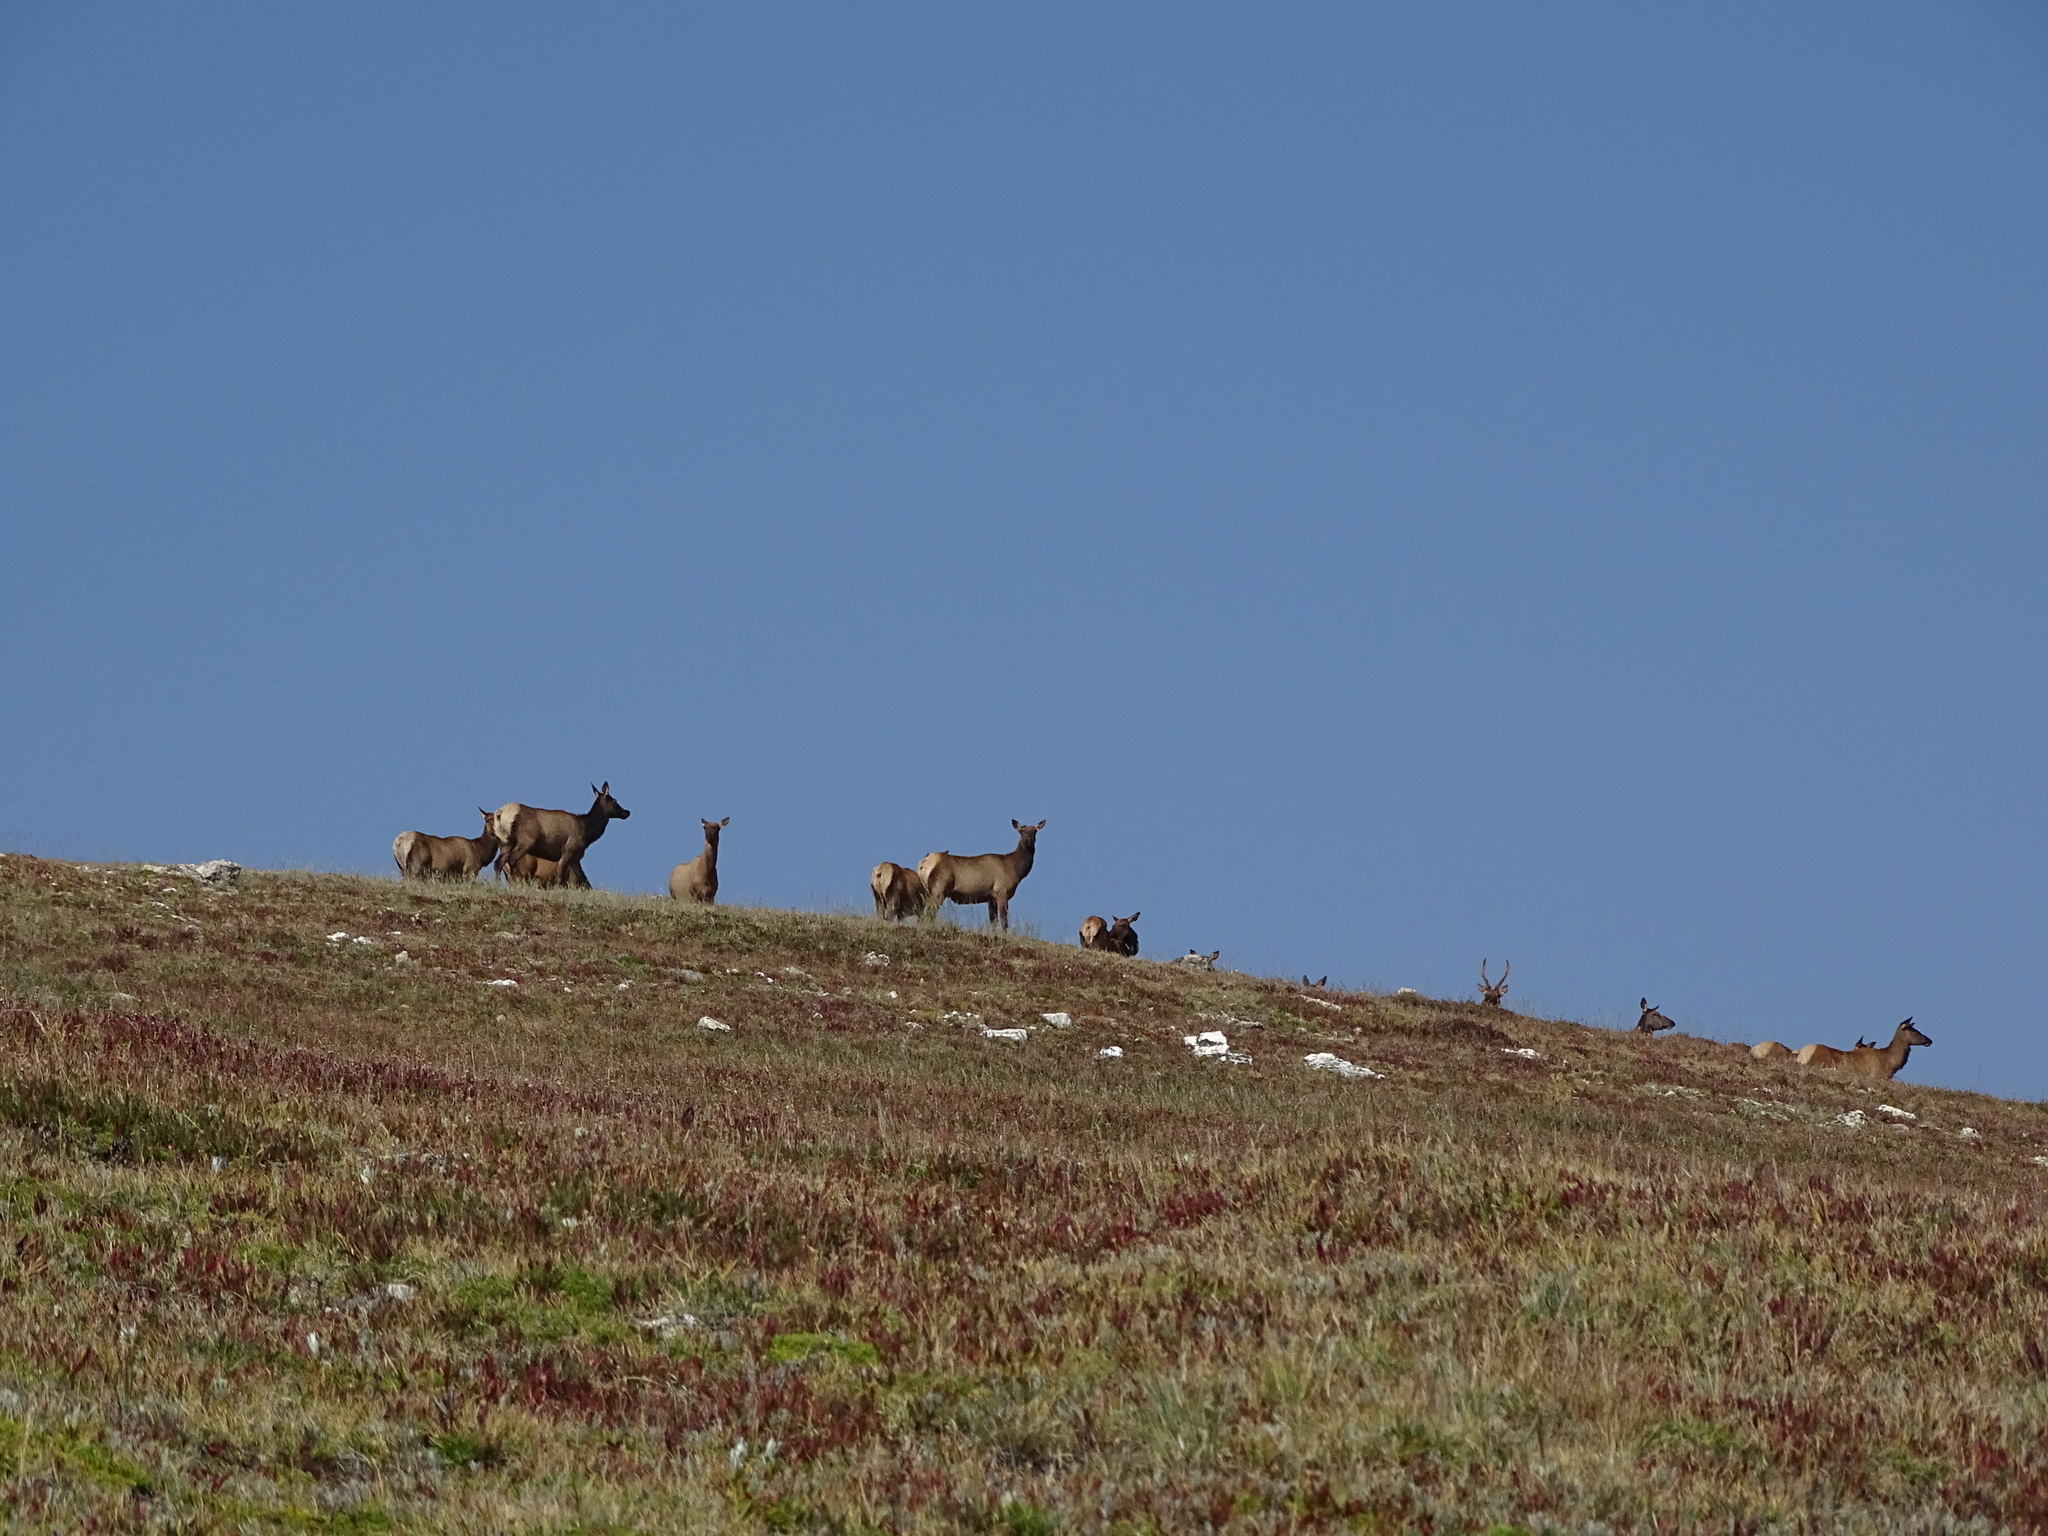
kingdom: Animalia
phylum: Chordata
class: Mammalia
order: Artiodactyla
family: Cervidae
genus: Cervus
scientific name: Cervus elaphus
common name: Red deer
